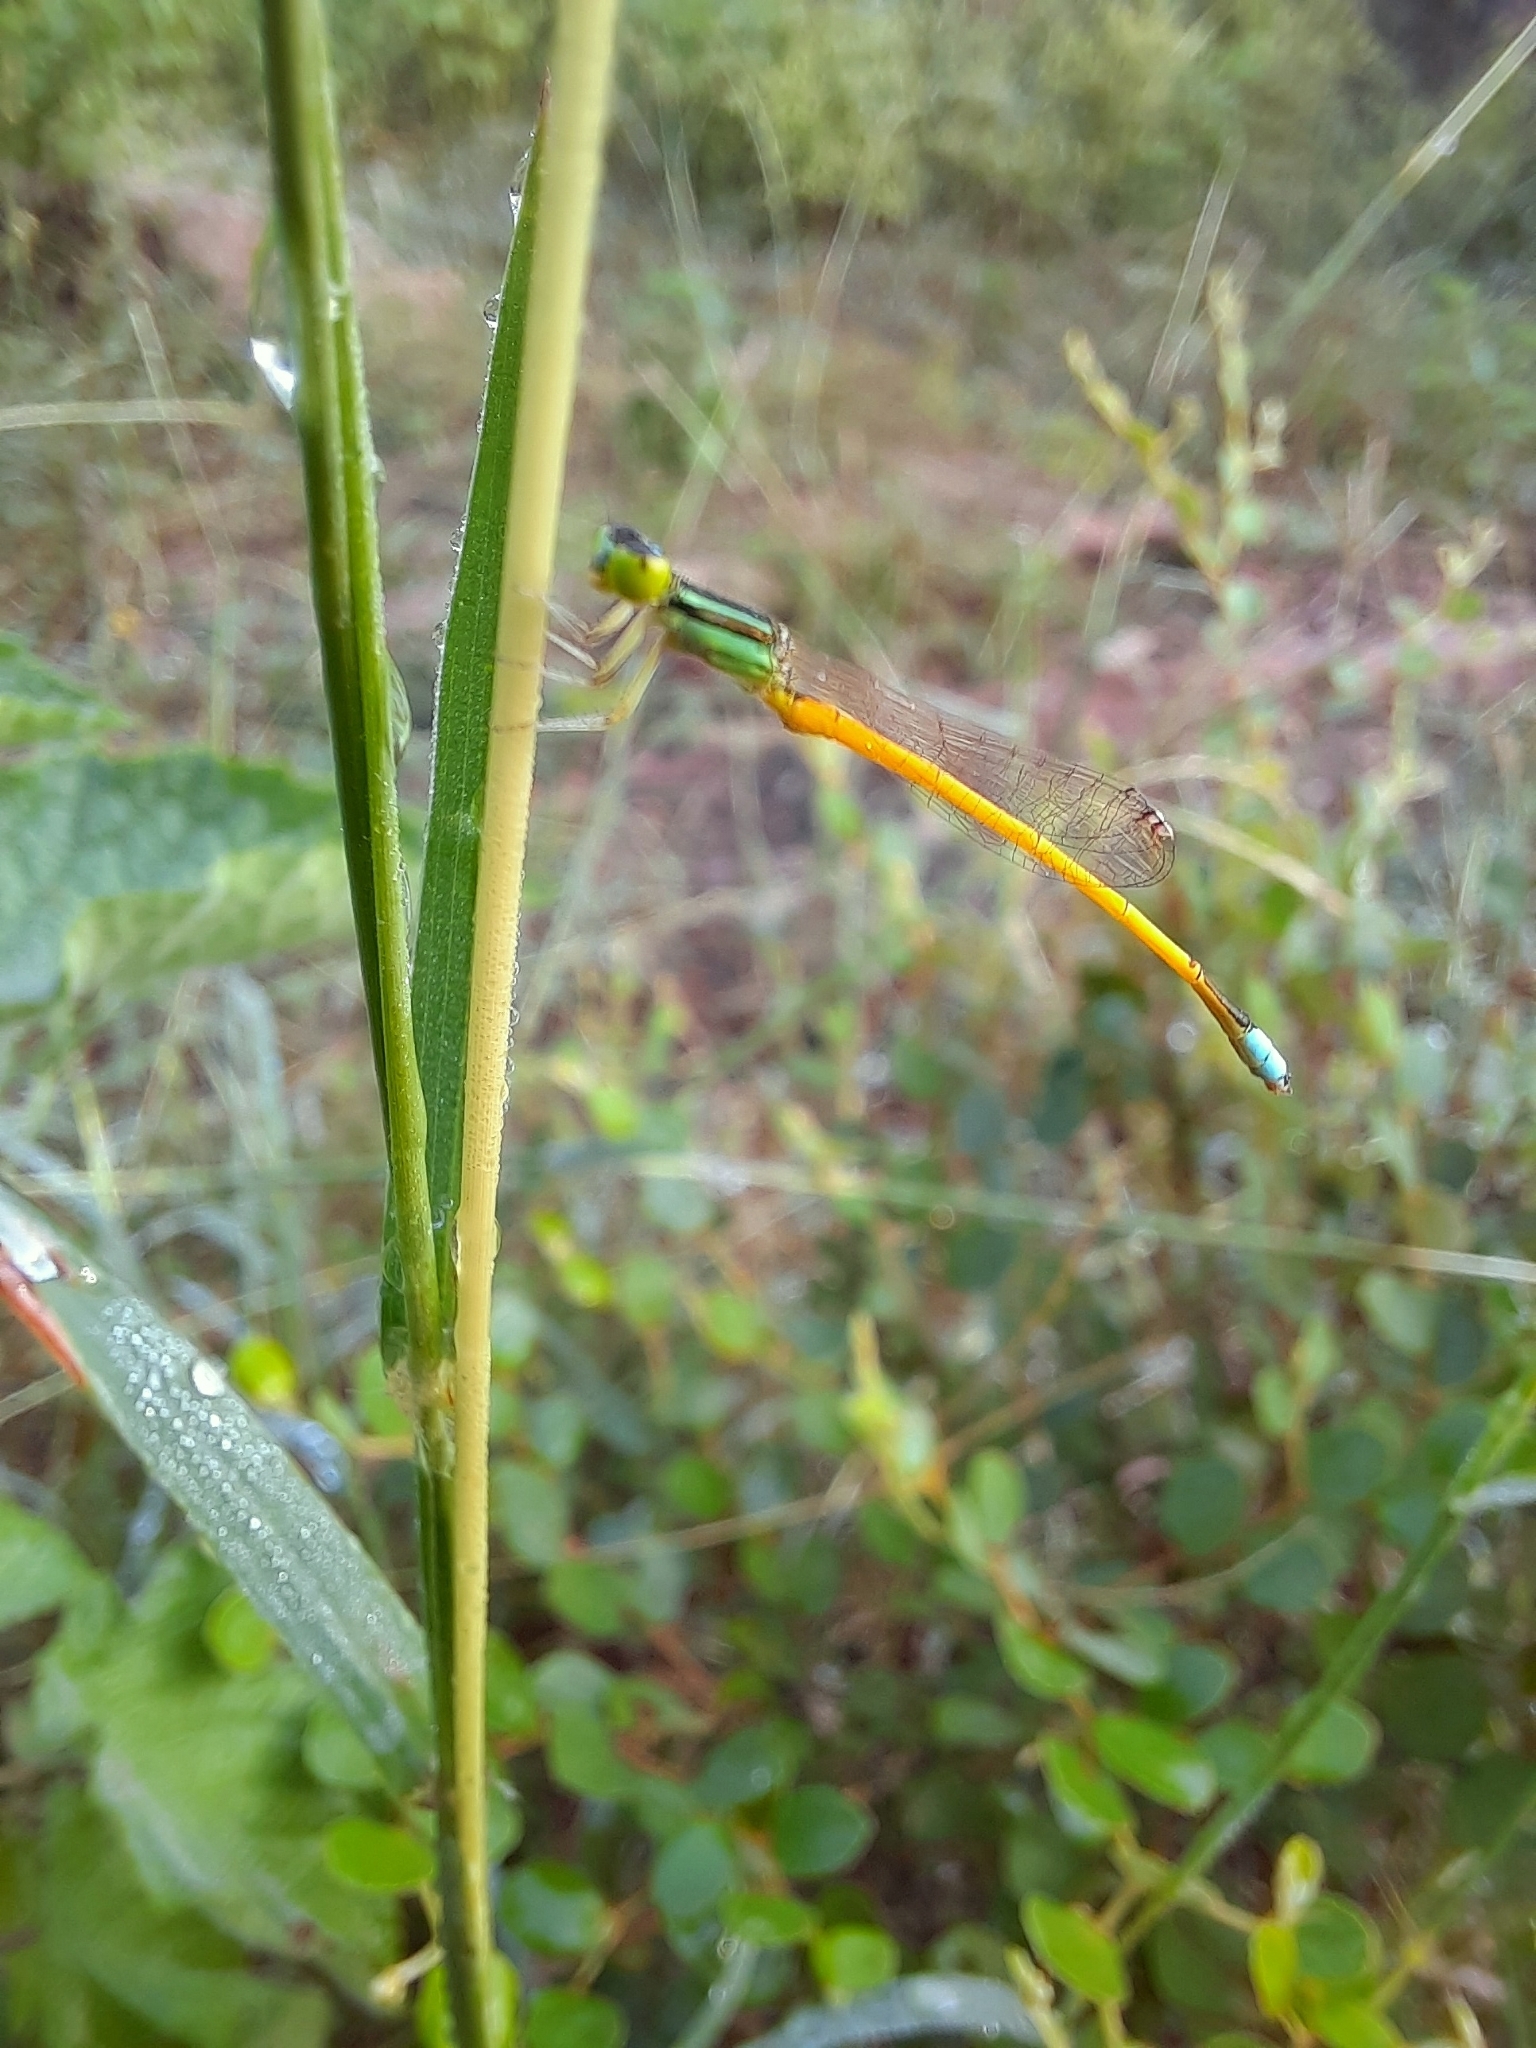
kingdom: Animalia
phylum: Arthropoda
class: Insecta
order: Odonata
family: Coenagrionidae
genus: Ischnura
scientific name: Ischnura rubilio
